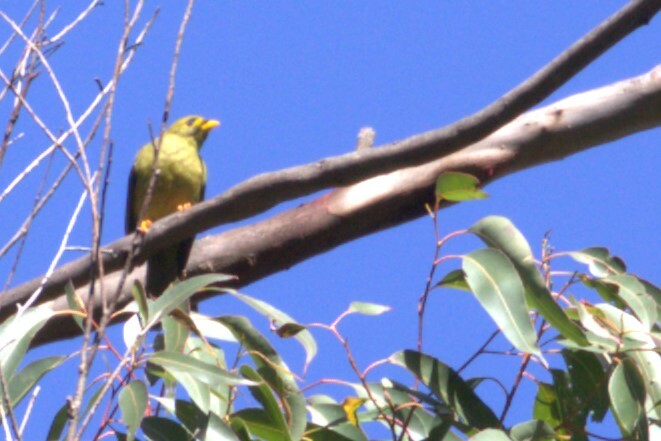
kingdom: Animalia
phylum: Chordata
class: Aves
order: Passeriformes
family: Meliphagidae
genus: Manorina
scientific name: Manorina melanophrys
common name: Bell miner
